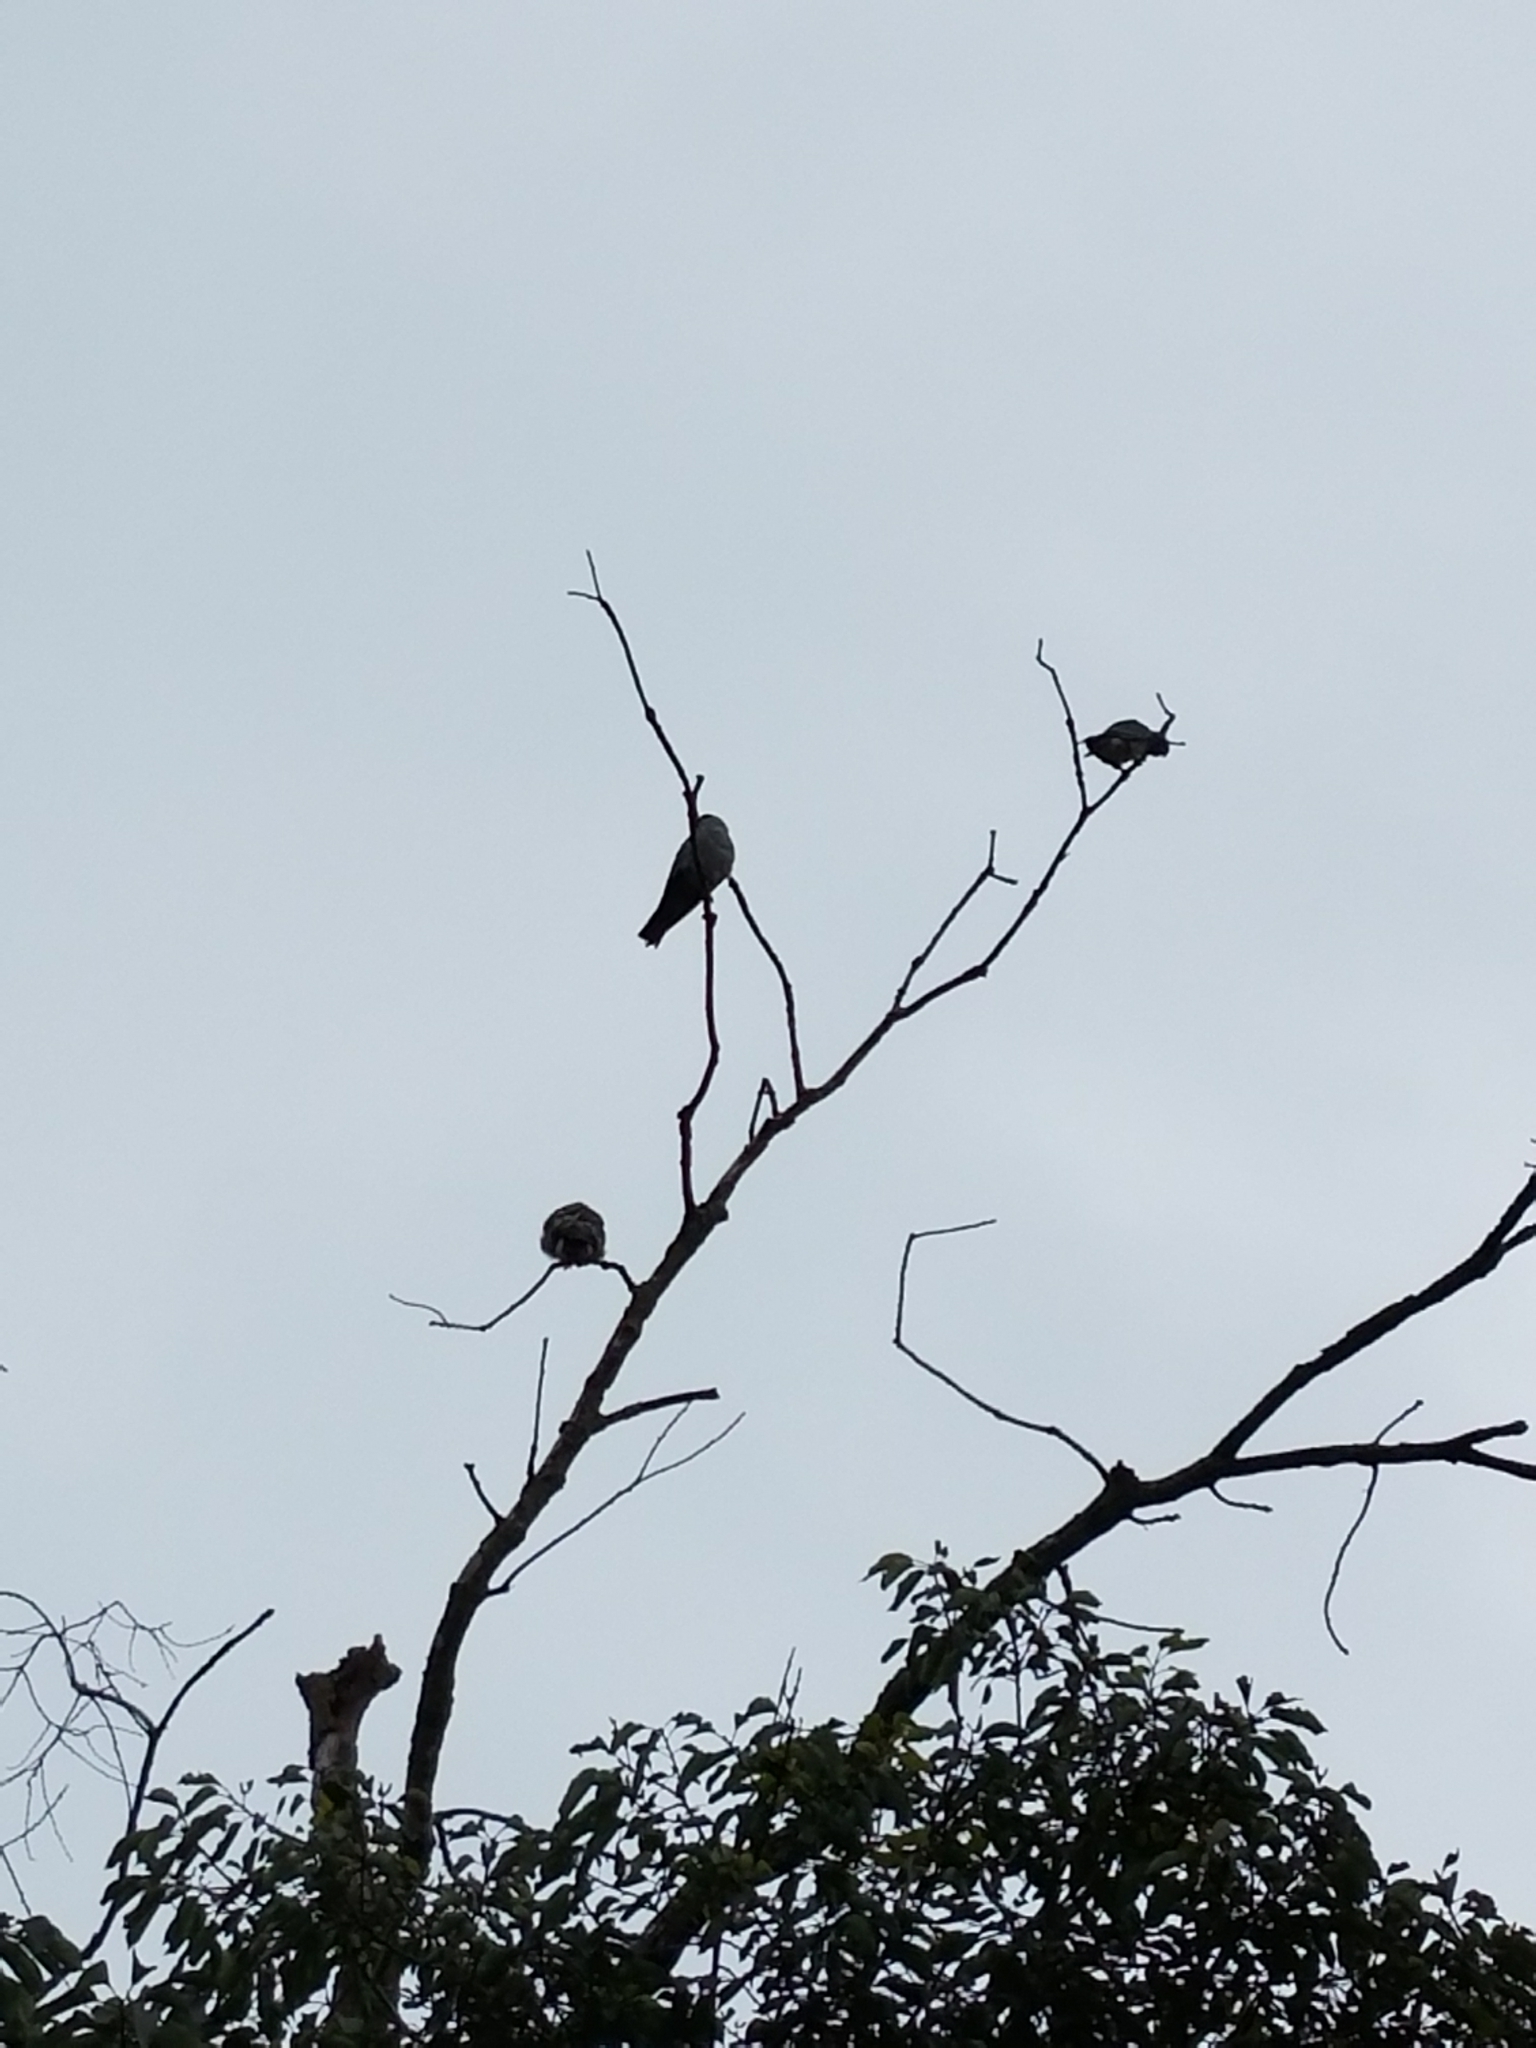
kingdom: Animalia
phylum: Chordata
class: Aves
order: Accipitriformes
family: Accipitridae
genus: Ictinia
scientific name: Ictinia mississippiensis
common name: Mississippi kite
